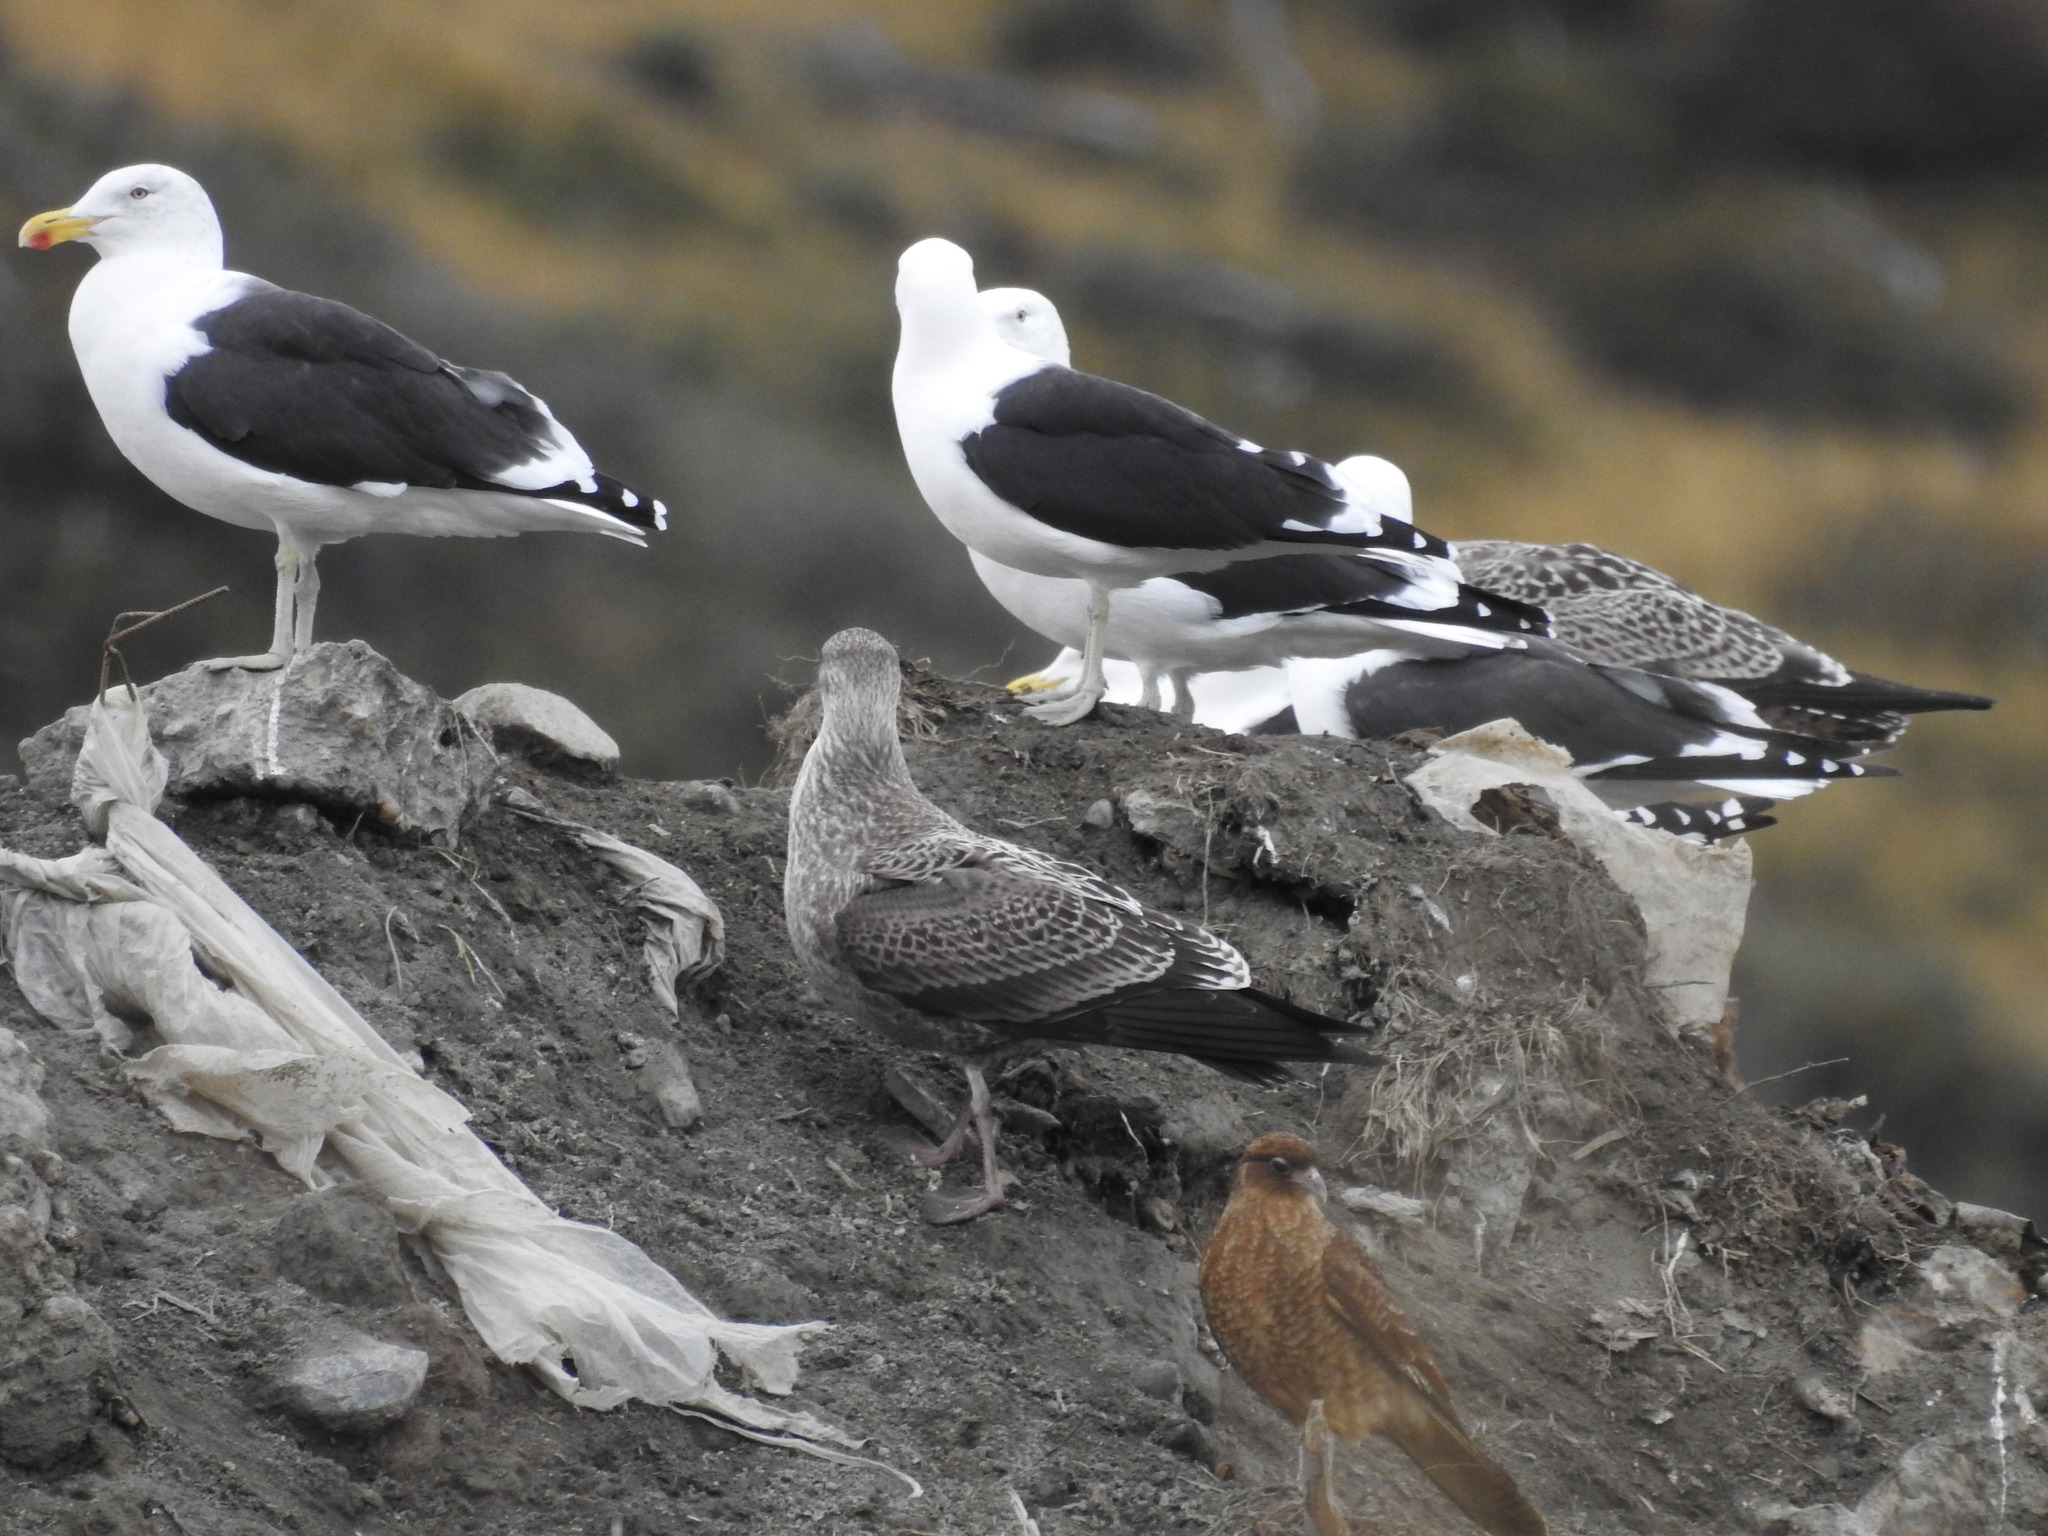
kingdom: Animalia
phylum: Chordata
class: Aves
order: Charadriiformes
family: Laridae
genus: Larus
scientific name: Larus dominicanus
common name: Kelp gull
